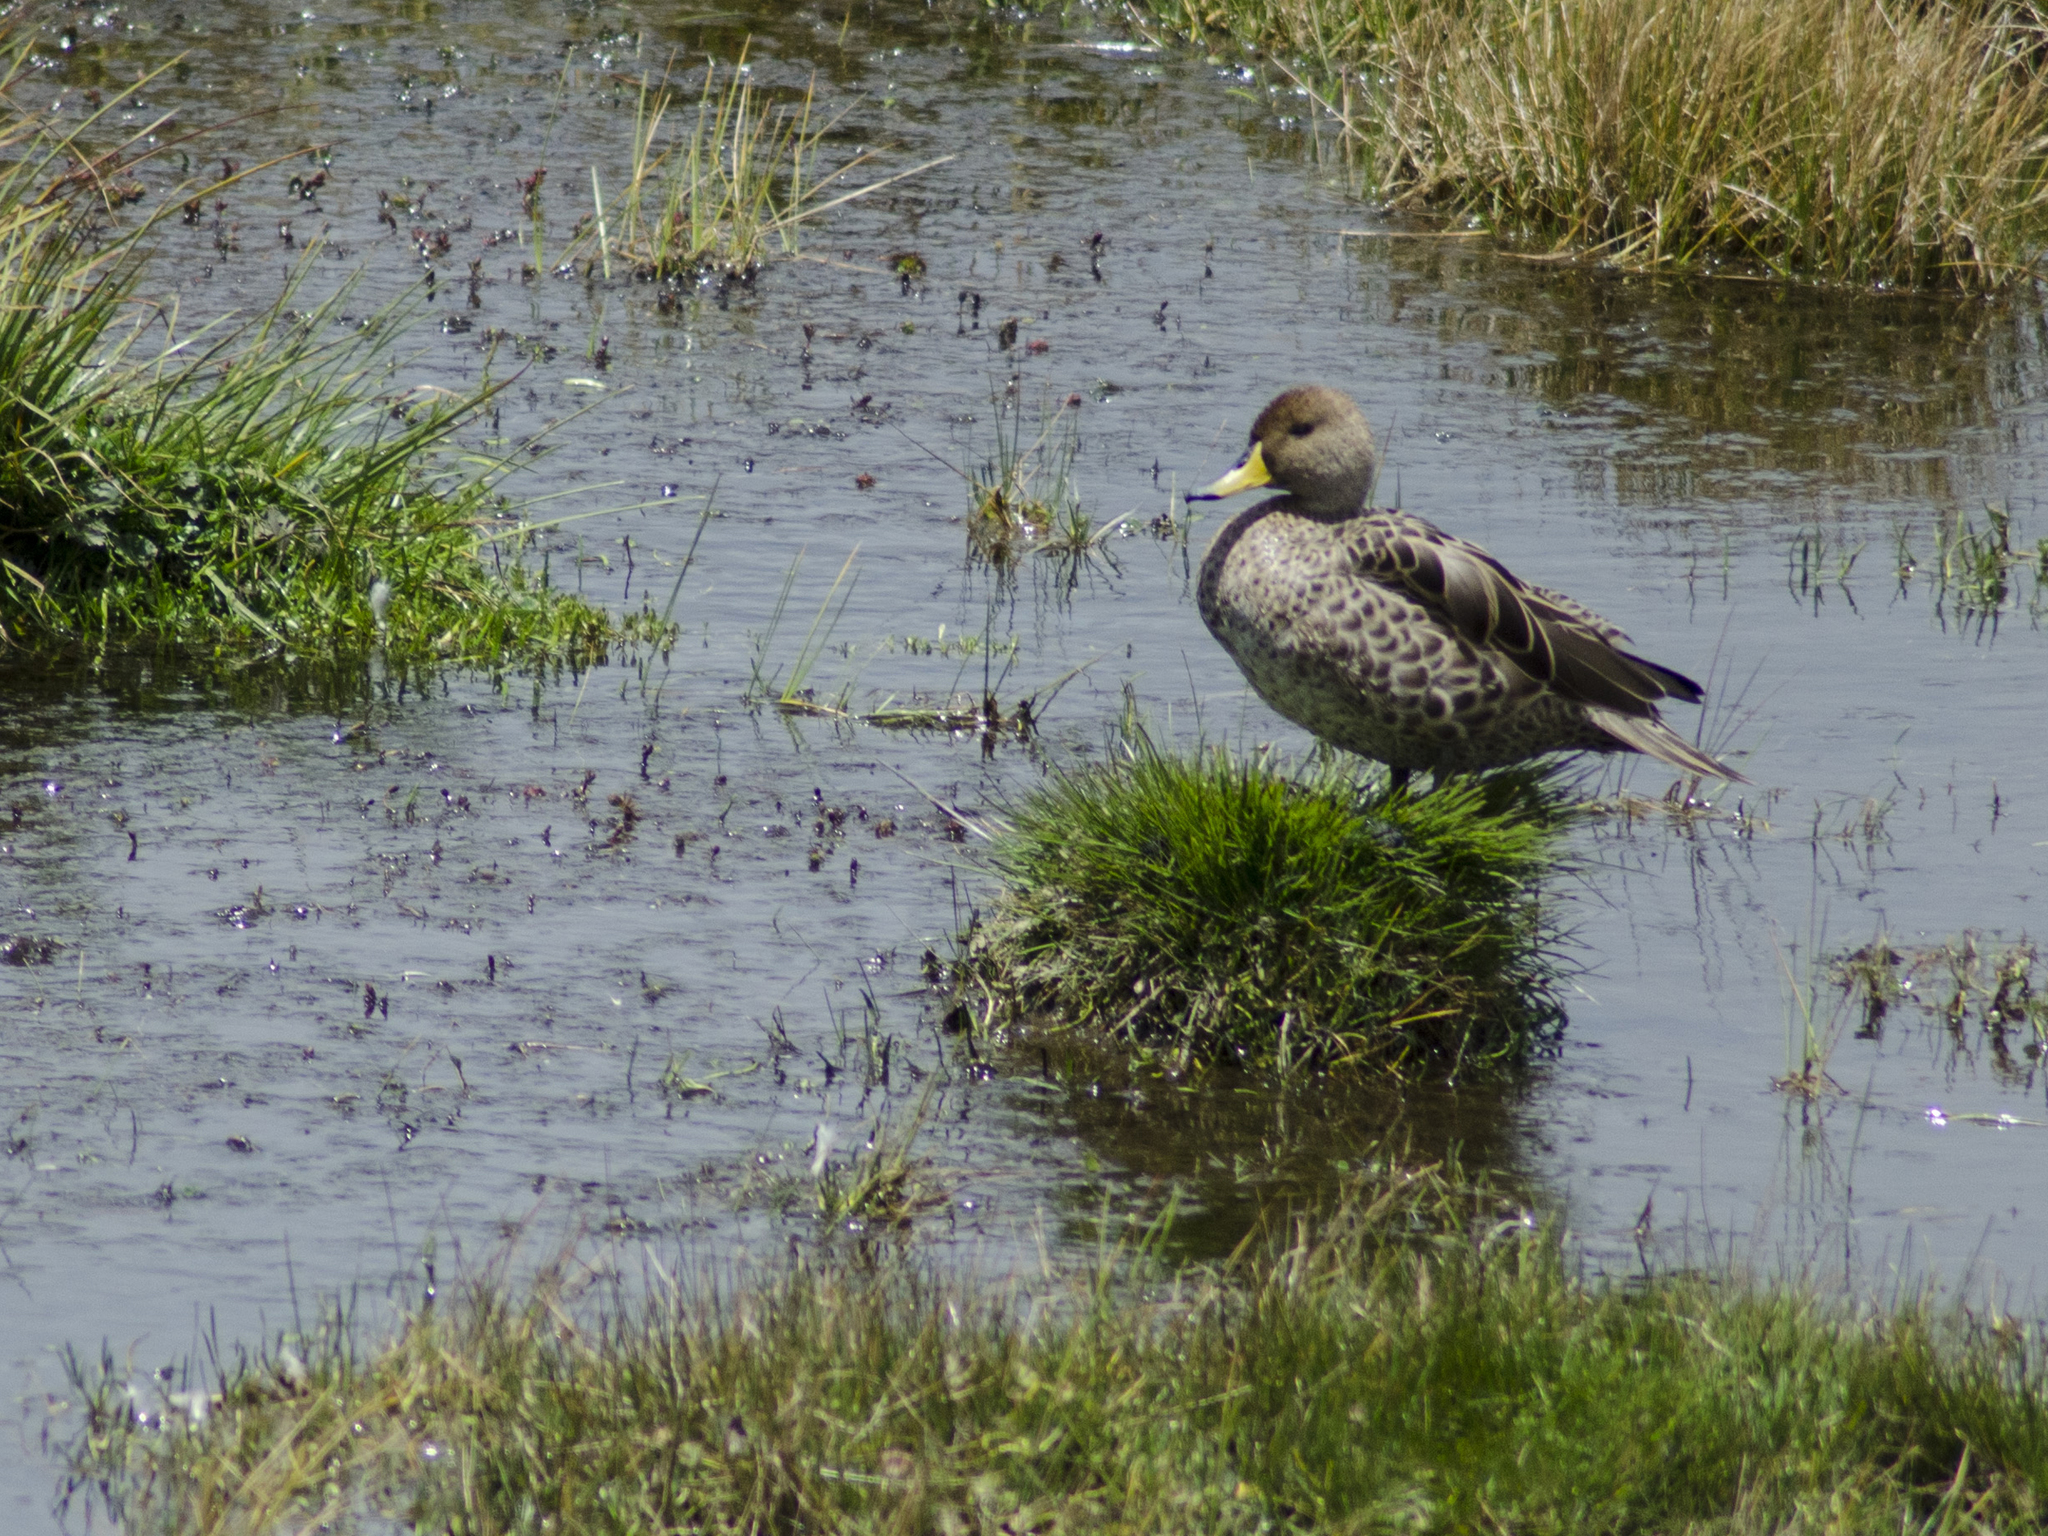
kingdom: Animalia
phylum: Chordata
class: Aves
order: Anseriformes
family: Anatidae
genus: Anas
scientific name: Anas georgica
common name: Yellow-billed pintail
